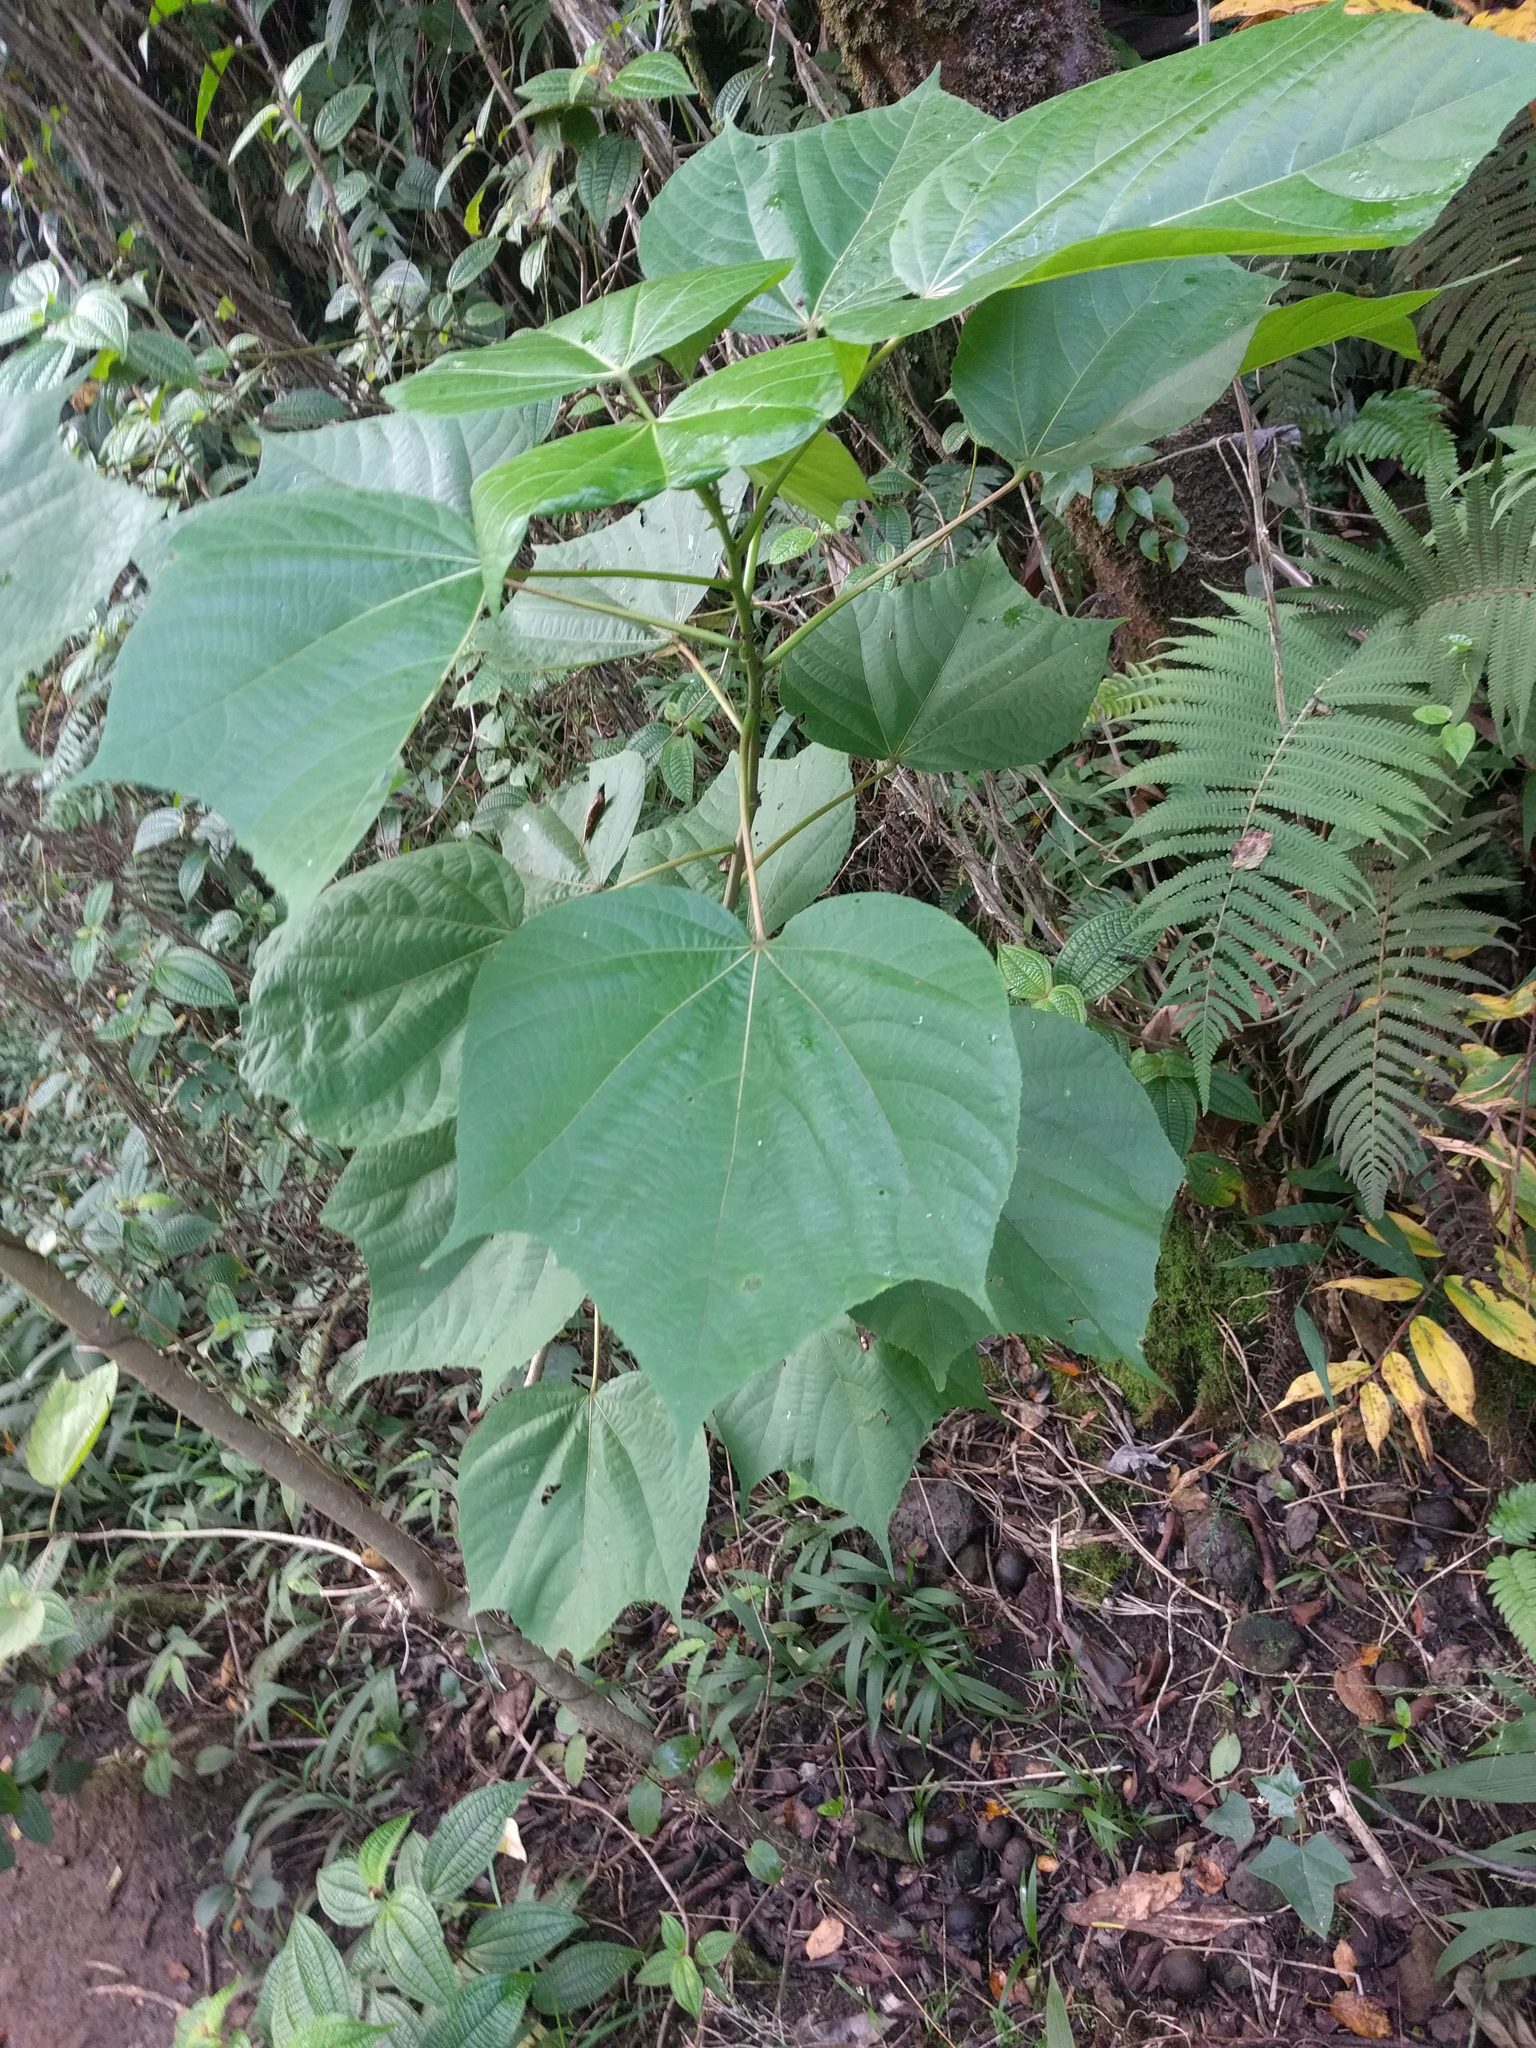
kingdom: Plantae
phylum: Tracheophyta
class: Magnoliopsida
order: Malvales
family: Malvaceae
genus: Heliocarpus
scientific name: Heliocarpus americanus
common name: White moho
